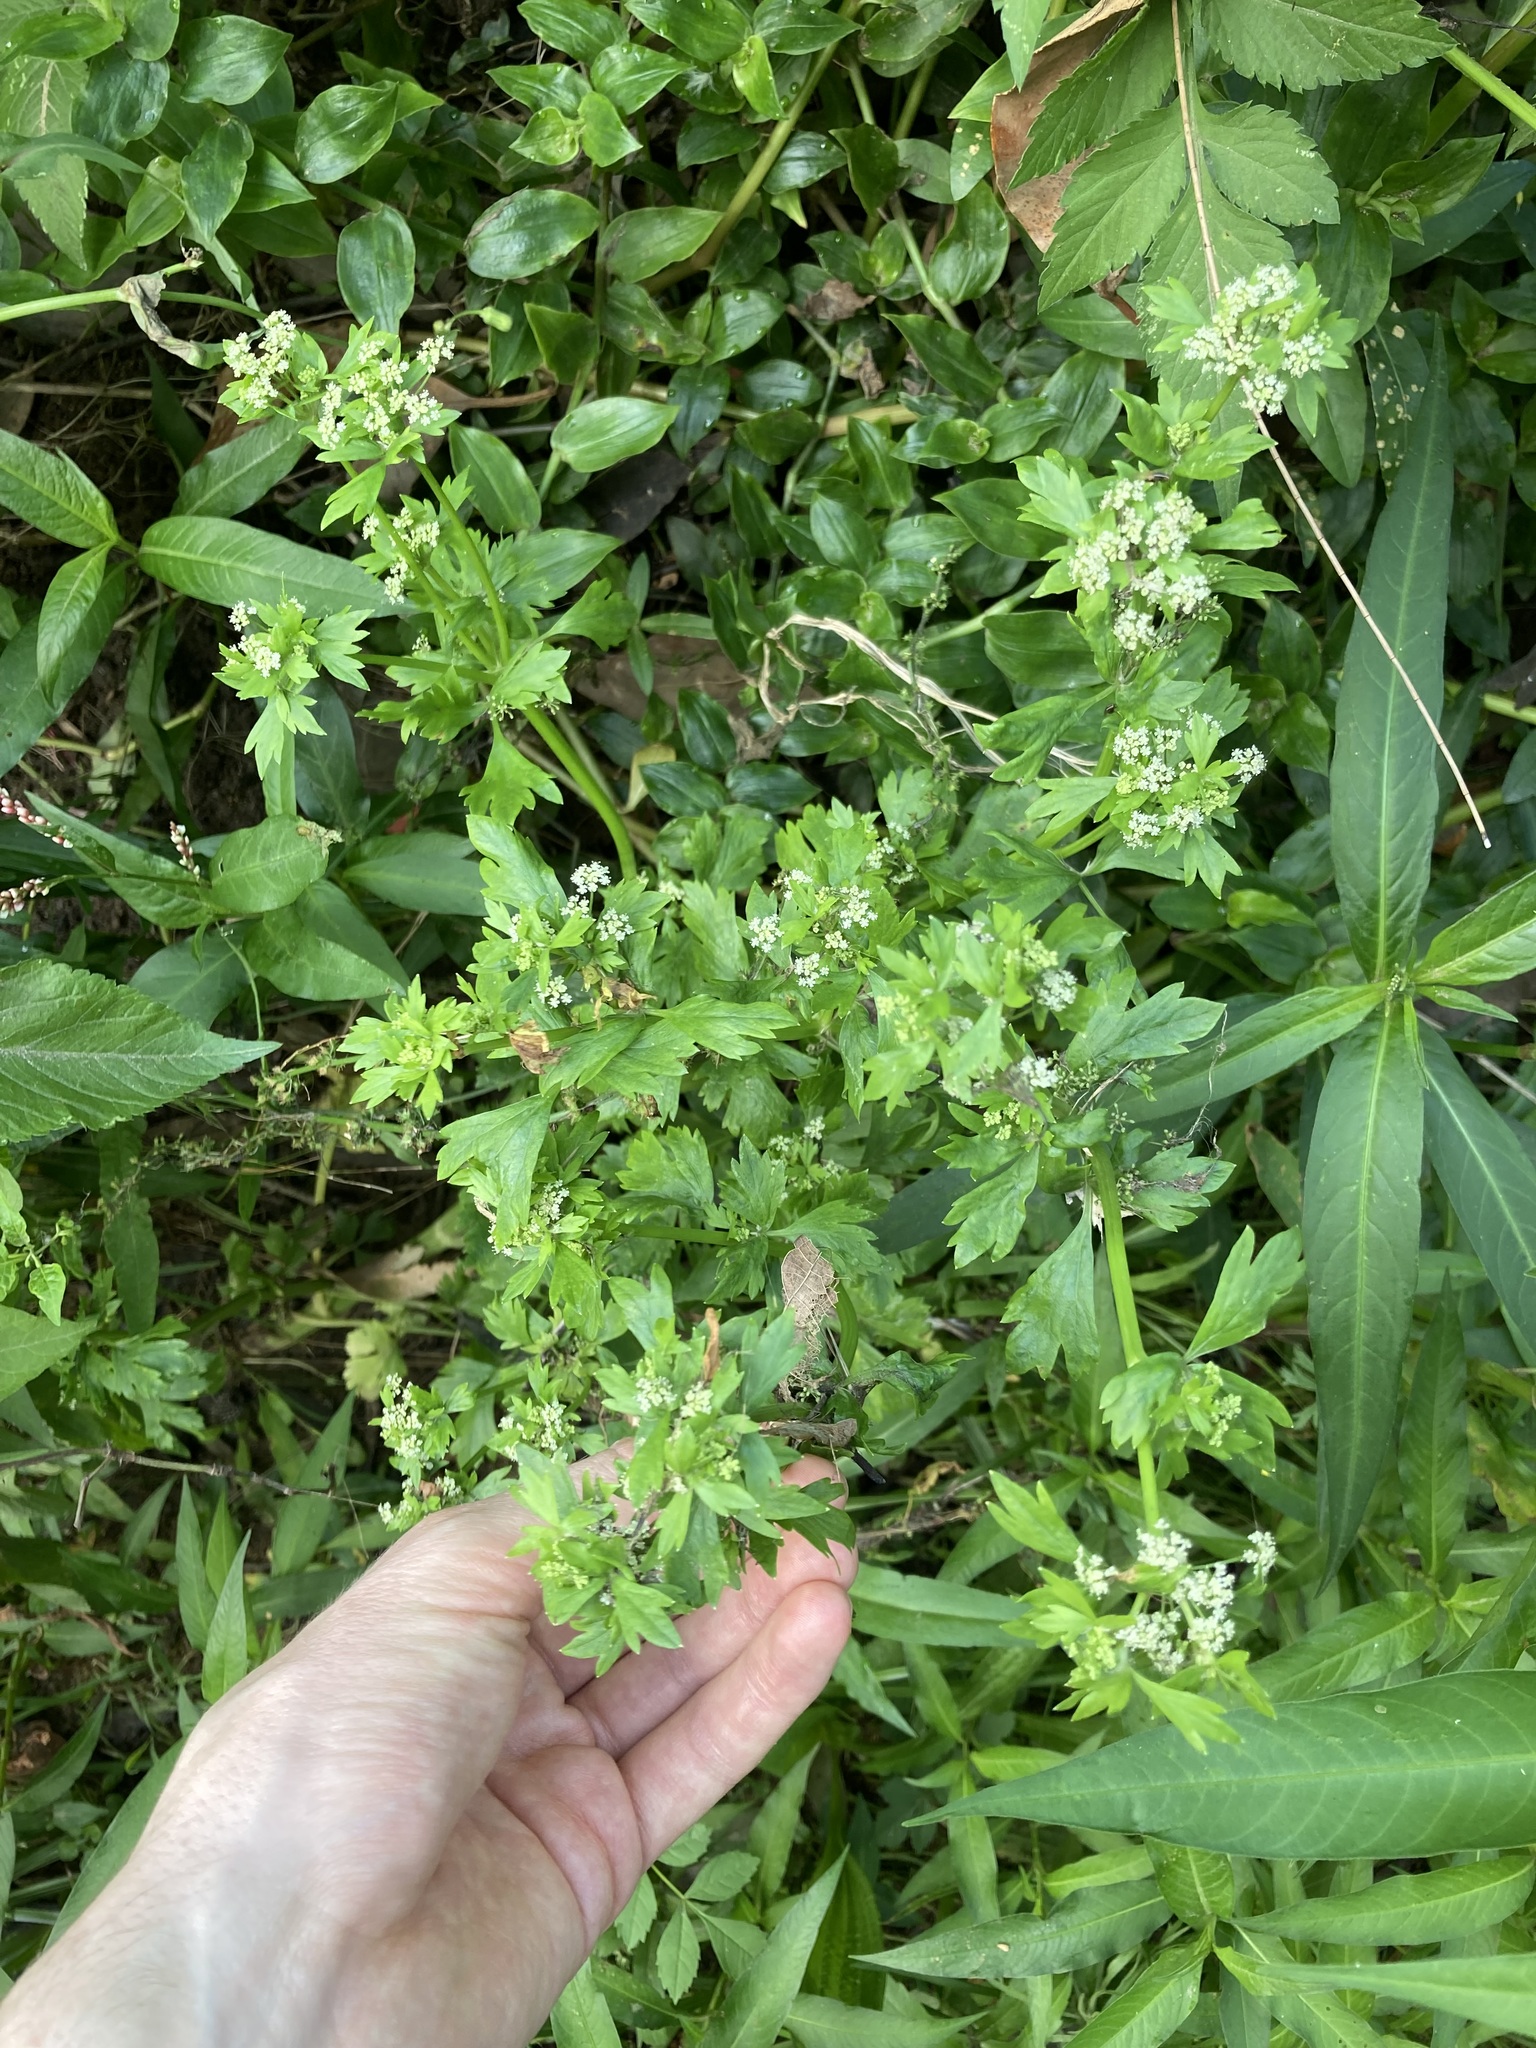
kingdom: Plantae
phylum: Tracheophyta
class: Magnoliopsida
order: Apiales
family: Apiaceae
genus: Apium
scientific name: Apium graveolens
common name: Wild celery
